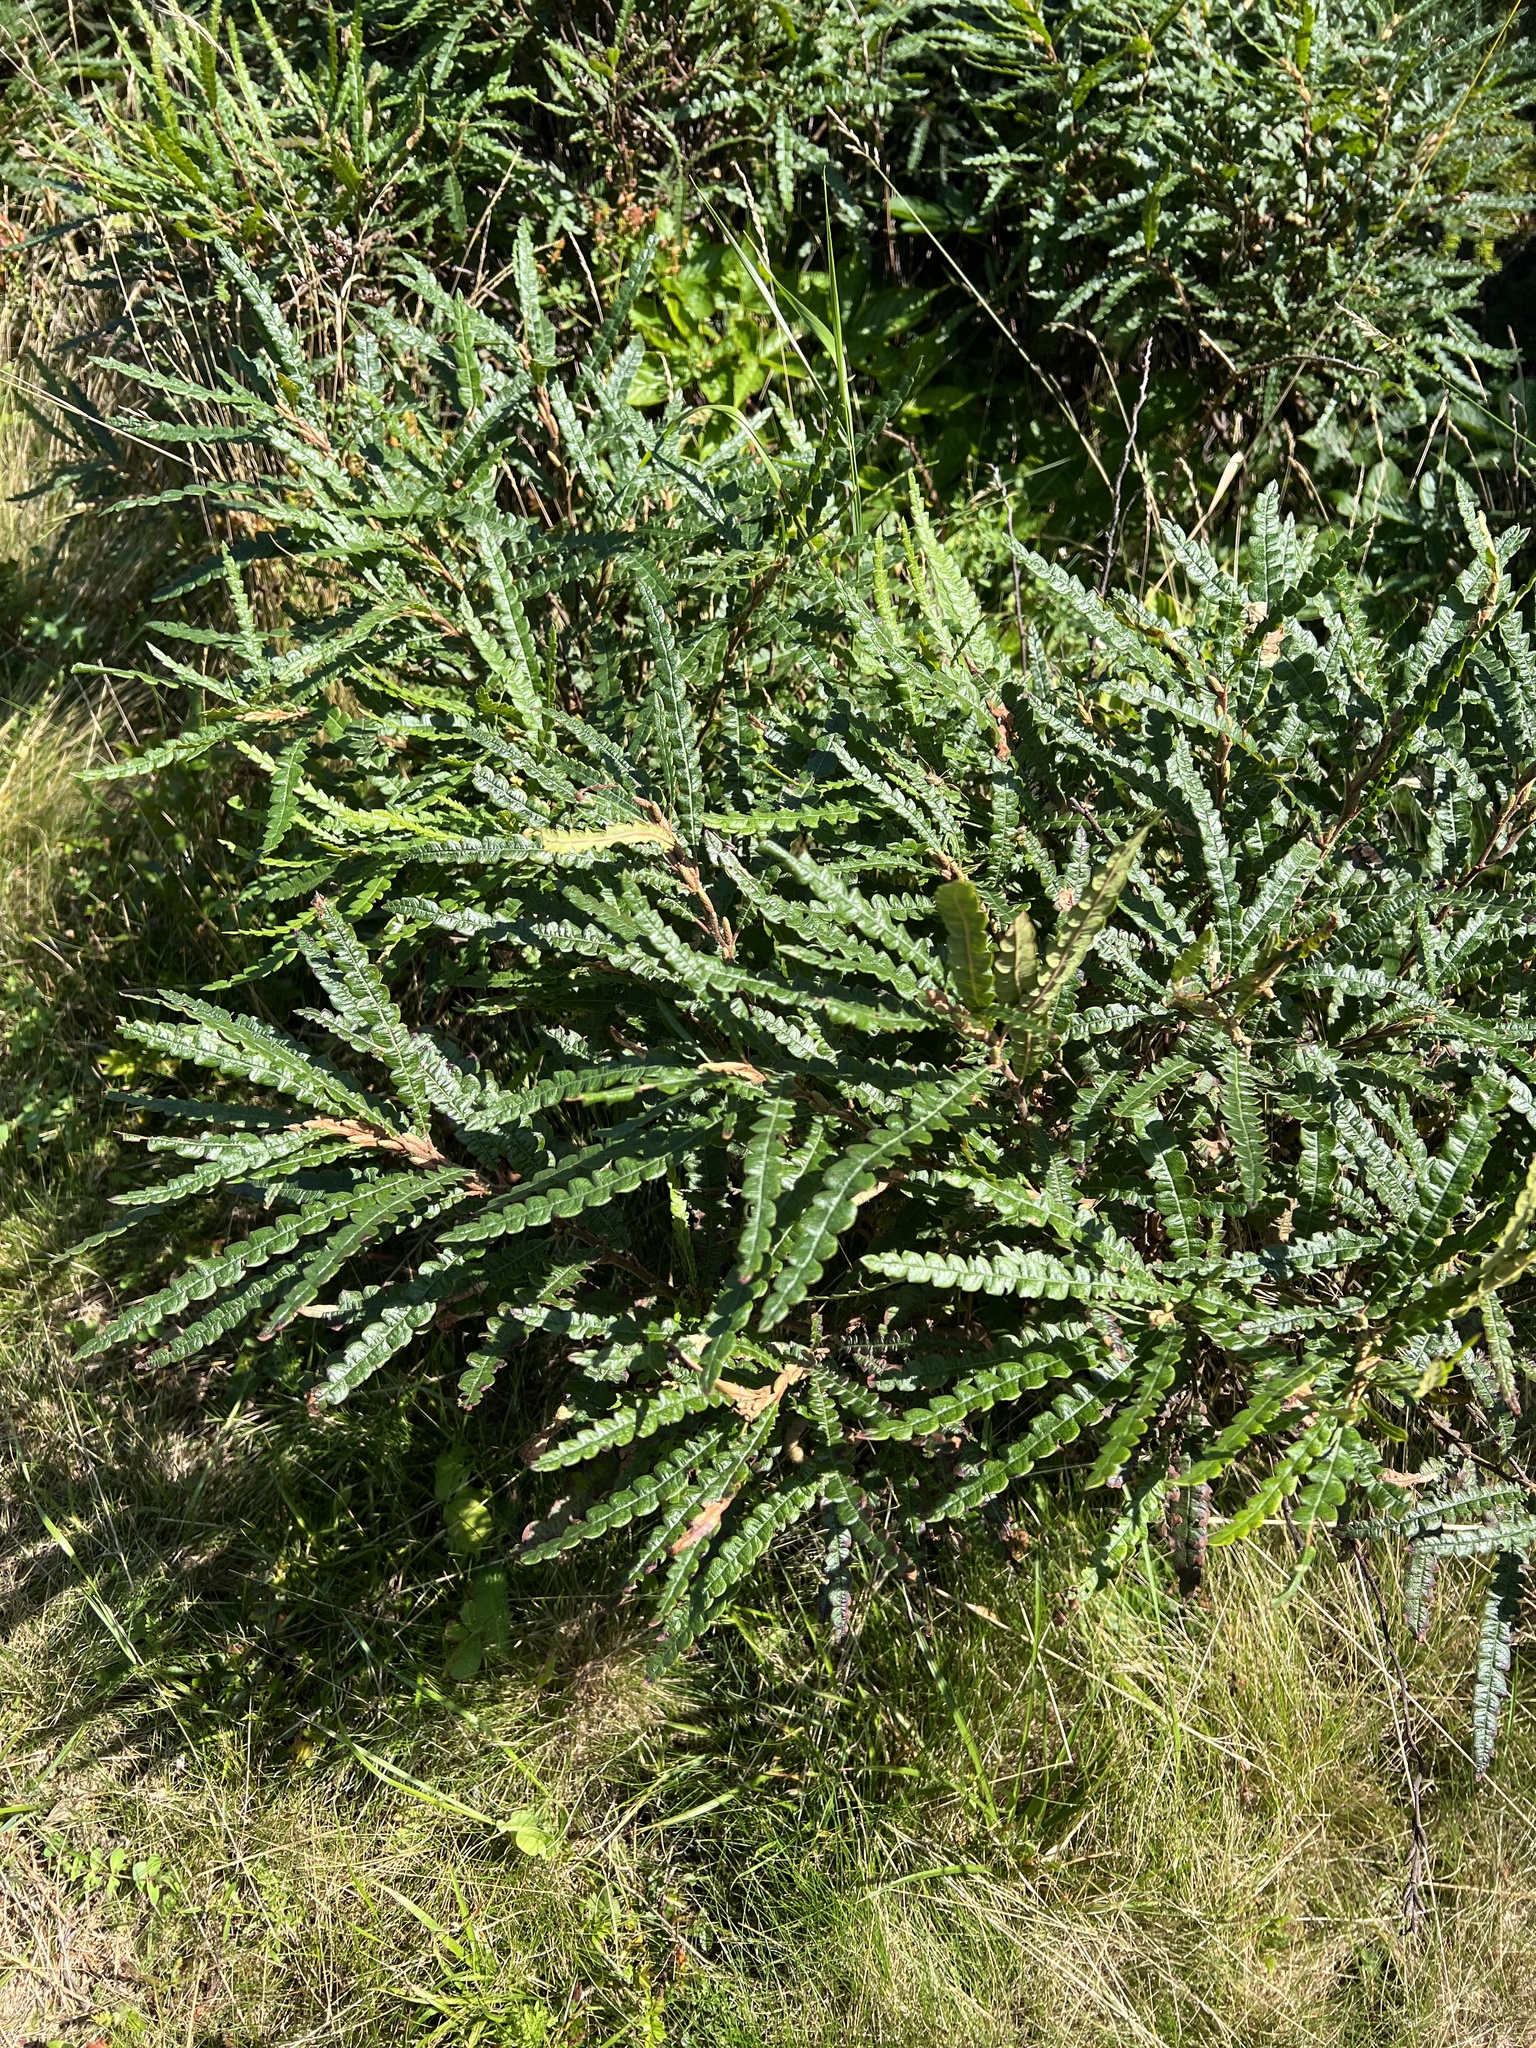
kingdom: Plantae
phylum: Tracheophyta
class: Magnoliopsida
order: Fagales
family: Myricaceae
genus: Comptonia
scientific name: Comptonia peregrina
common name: Sweet-fern
